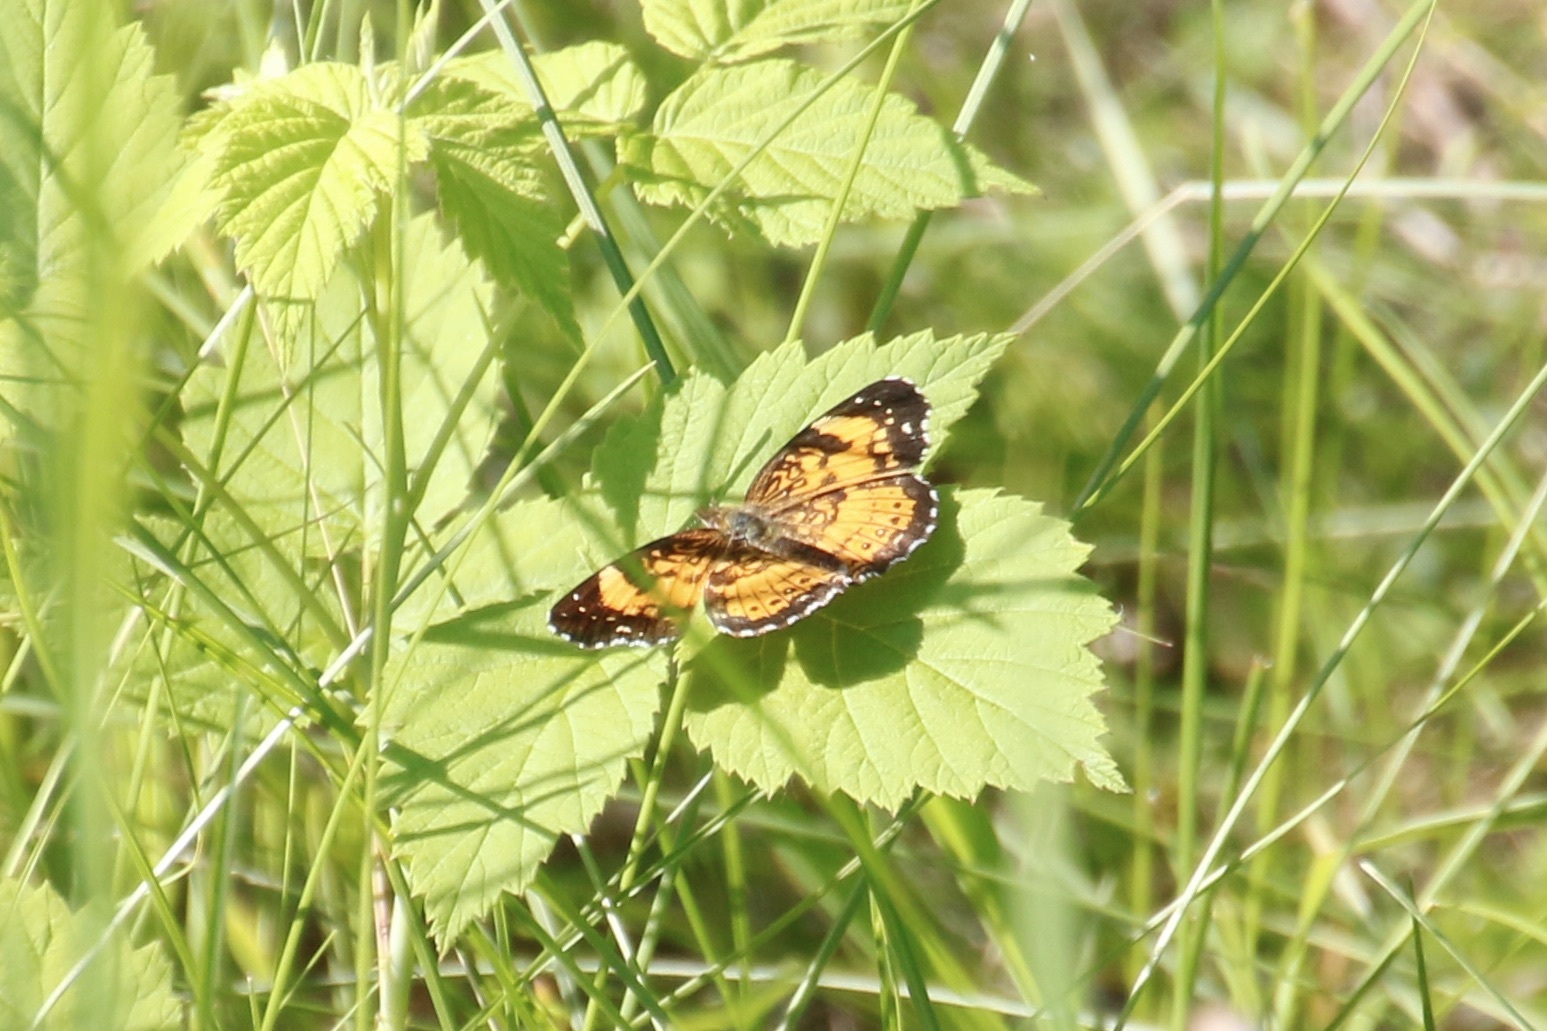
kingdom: Animalia
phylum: Arthropoda
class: Insecta
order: Lepidoptera
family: Nymphalidae
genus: Chlosyne
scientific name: Chlosyne nycteis
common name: Silvery checkerspot
